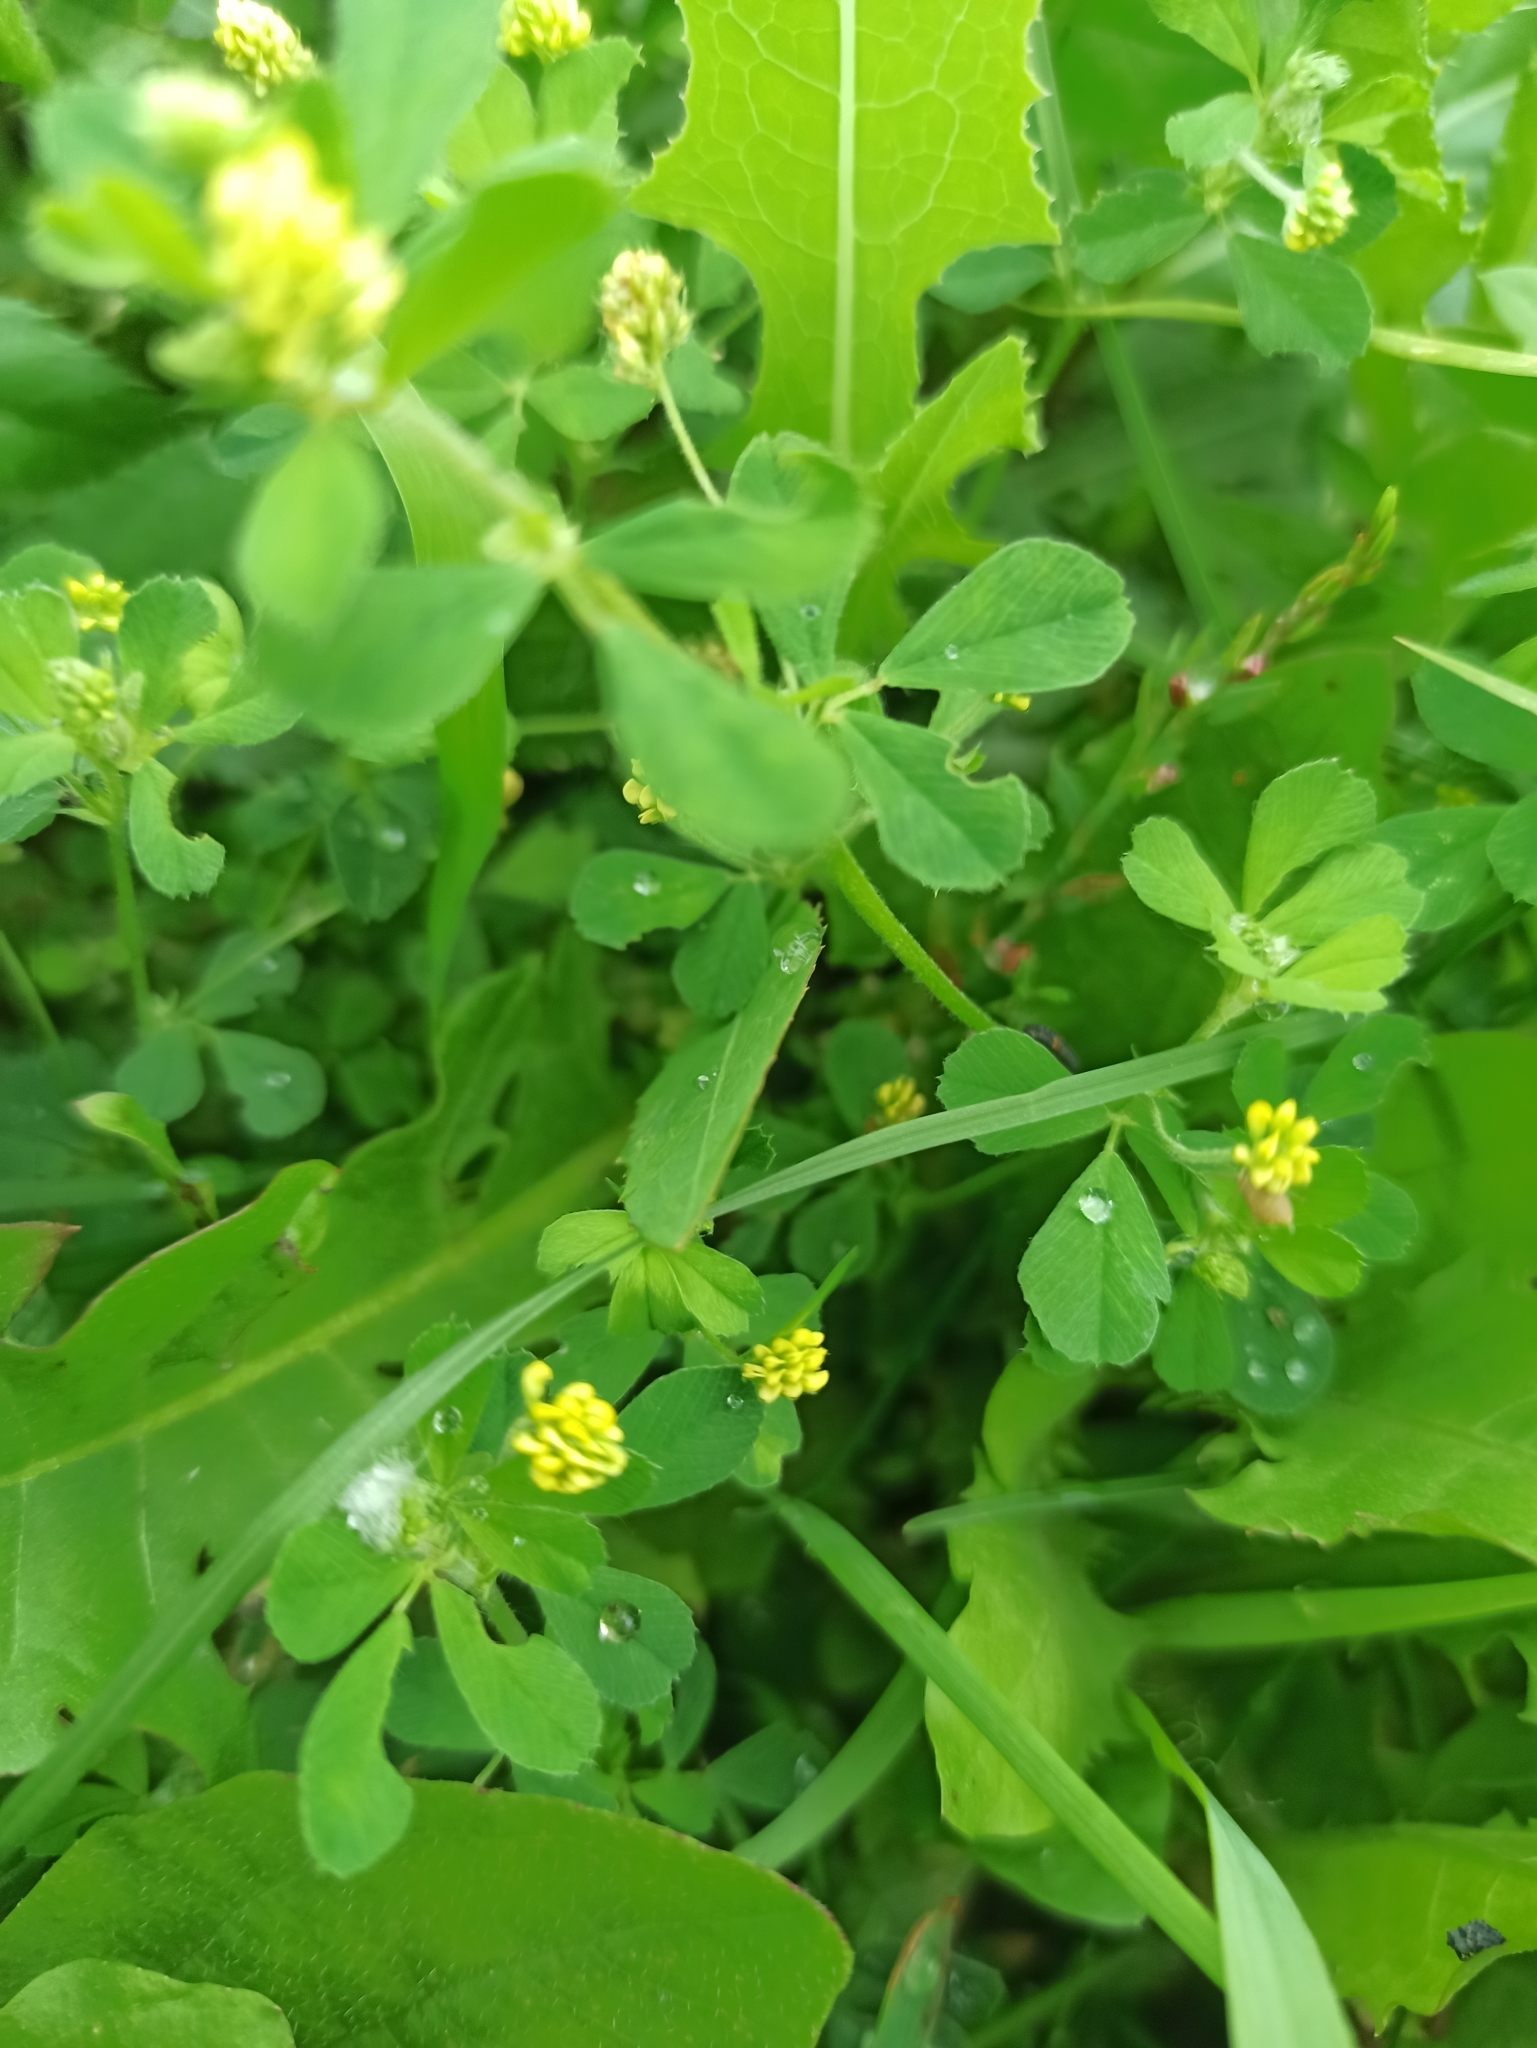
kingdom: Plantae
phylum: Tracheophyta
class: Magnoliopsida
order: Fabales
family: Fabaceae
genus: Medicago
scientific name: Medicago lupulina
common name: Black medick
